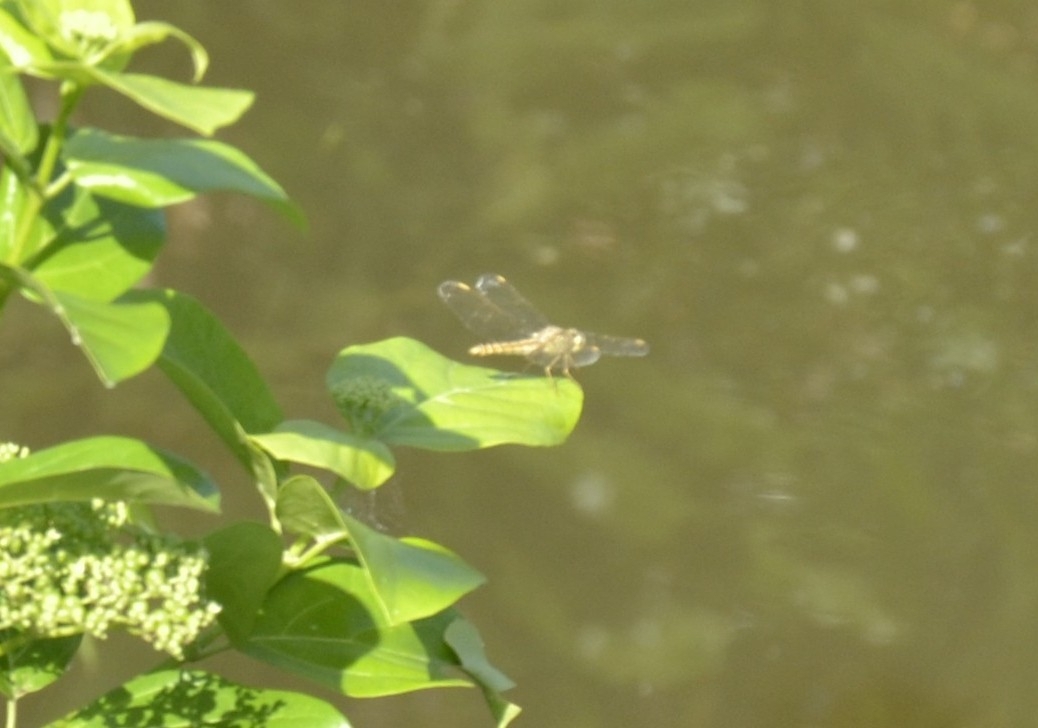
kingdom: Animalia
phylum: Arthropoda
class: Insecta
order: Odonata
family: Libellulidae
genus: Brachythemis
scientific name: Brachythemis contaminata
